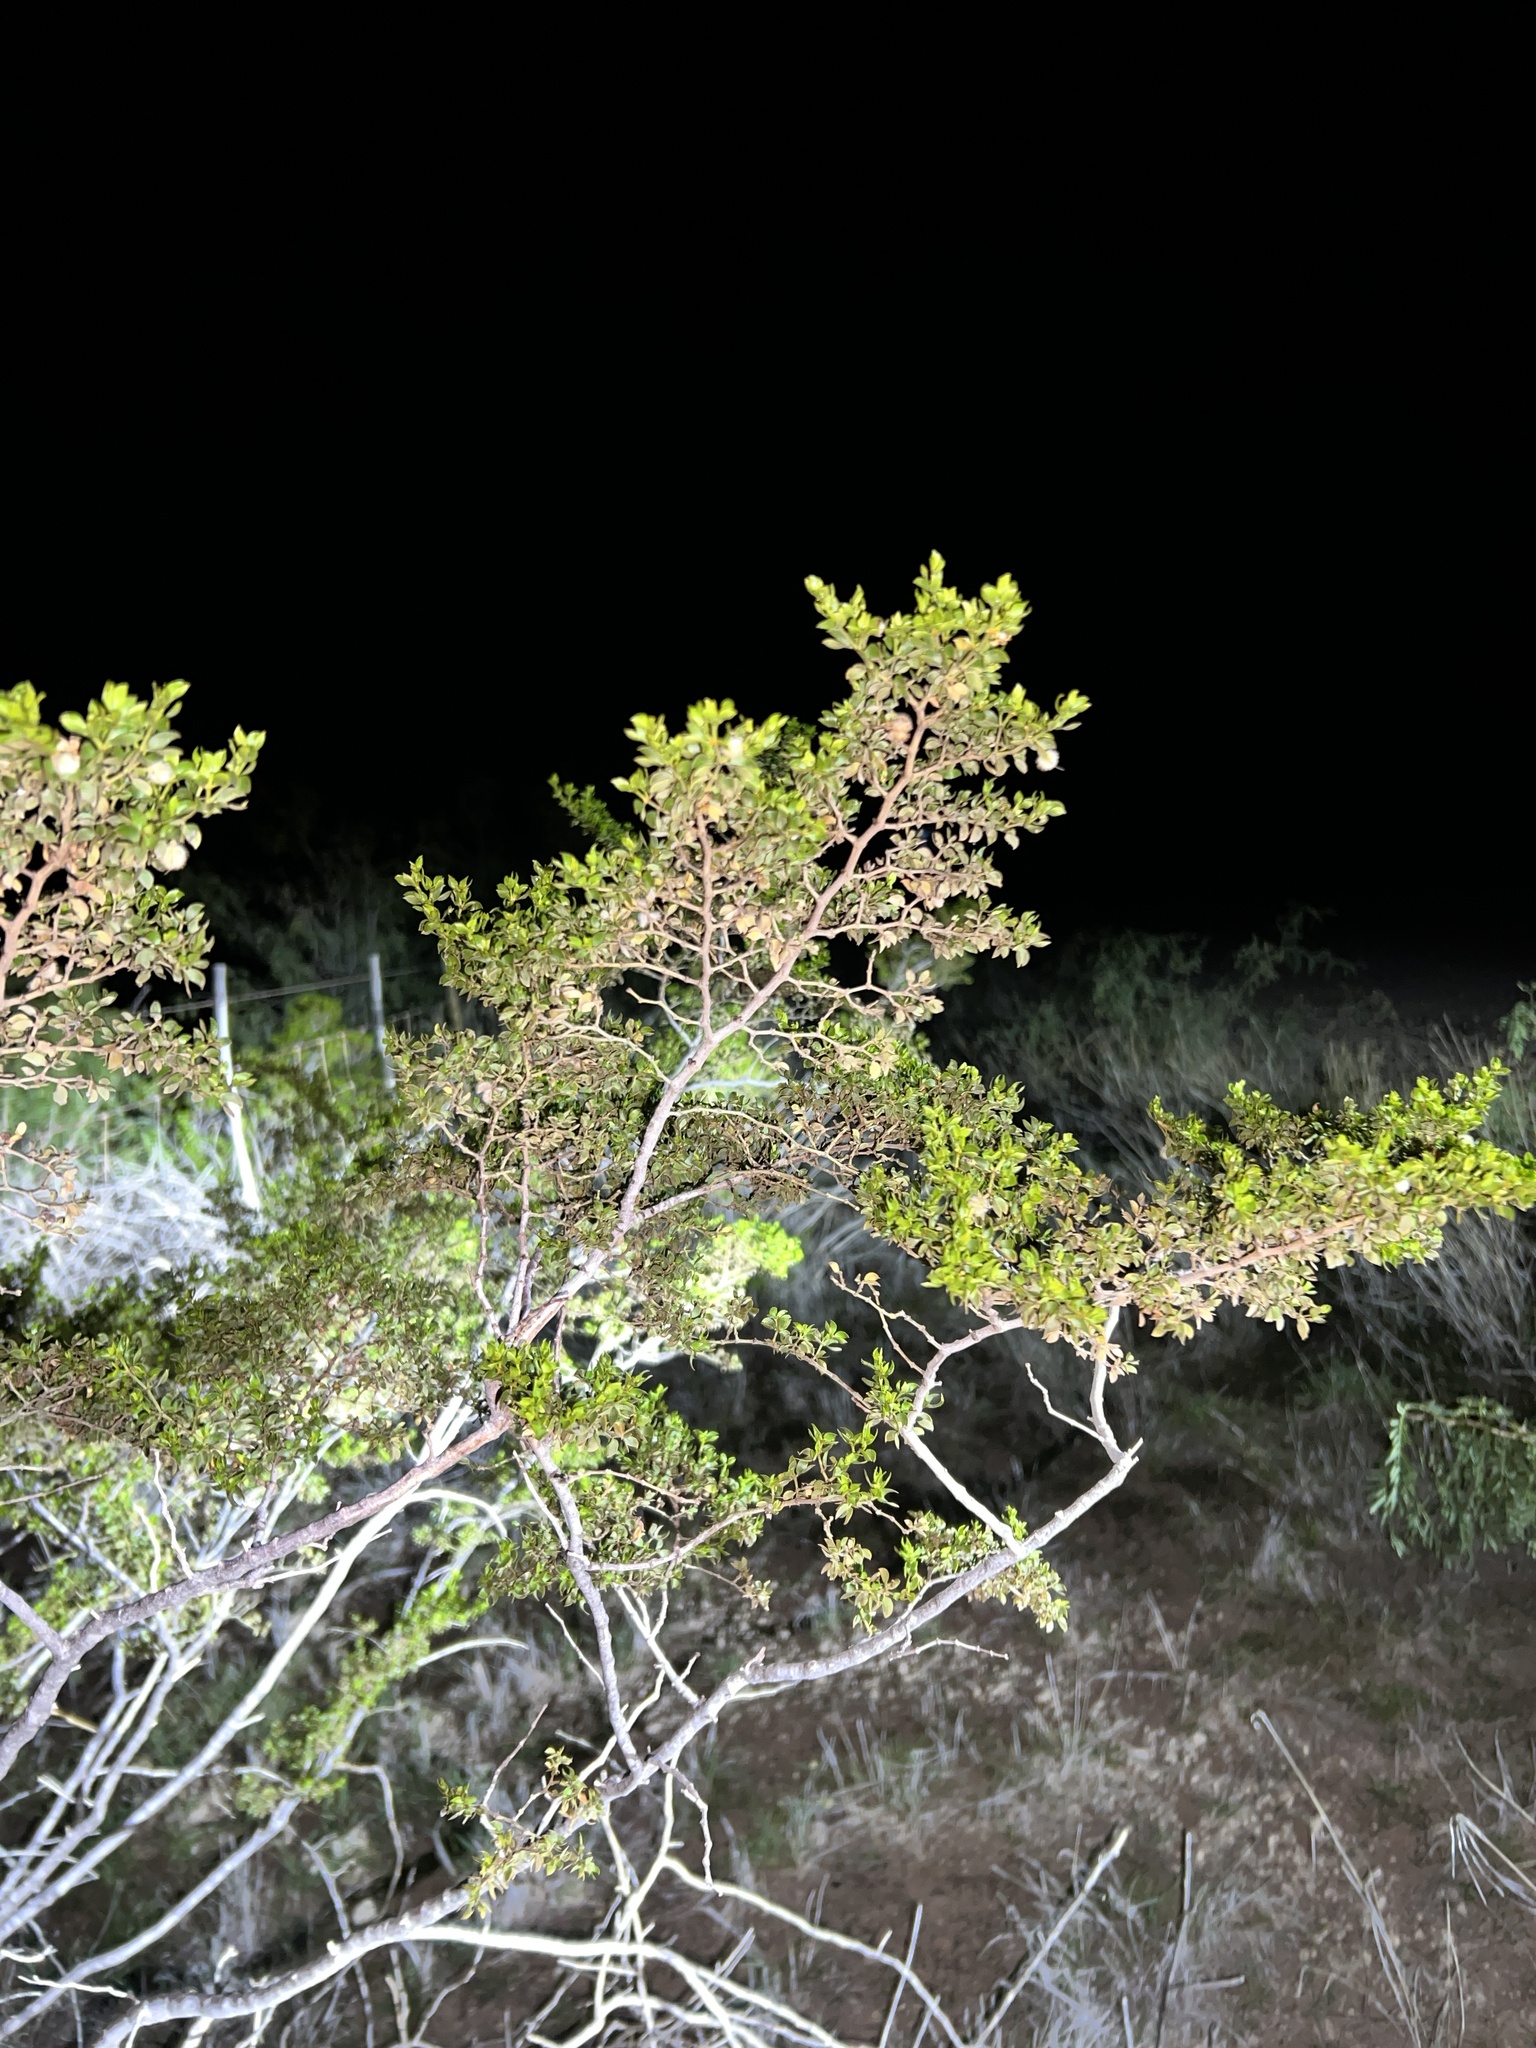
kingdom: Plantae
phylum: Tracheophyta
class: Magnoliopsida
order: Zygophyllales
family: Zygophyllaceae
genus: Larrea
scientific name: Larrea tridentata
